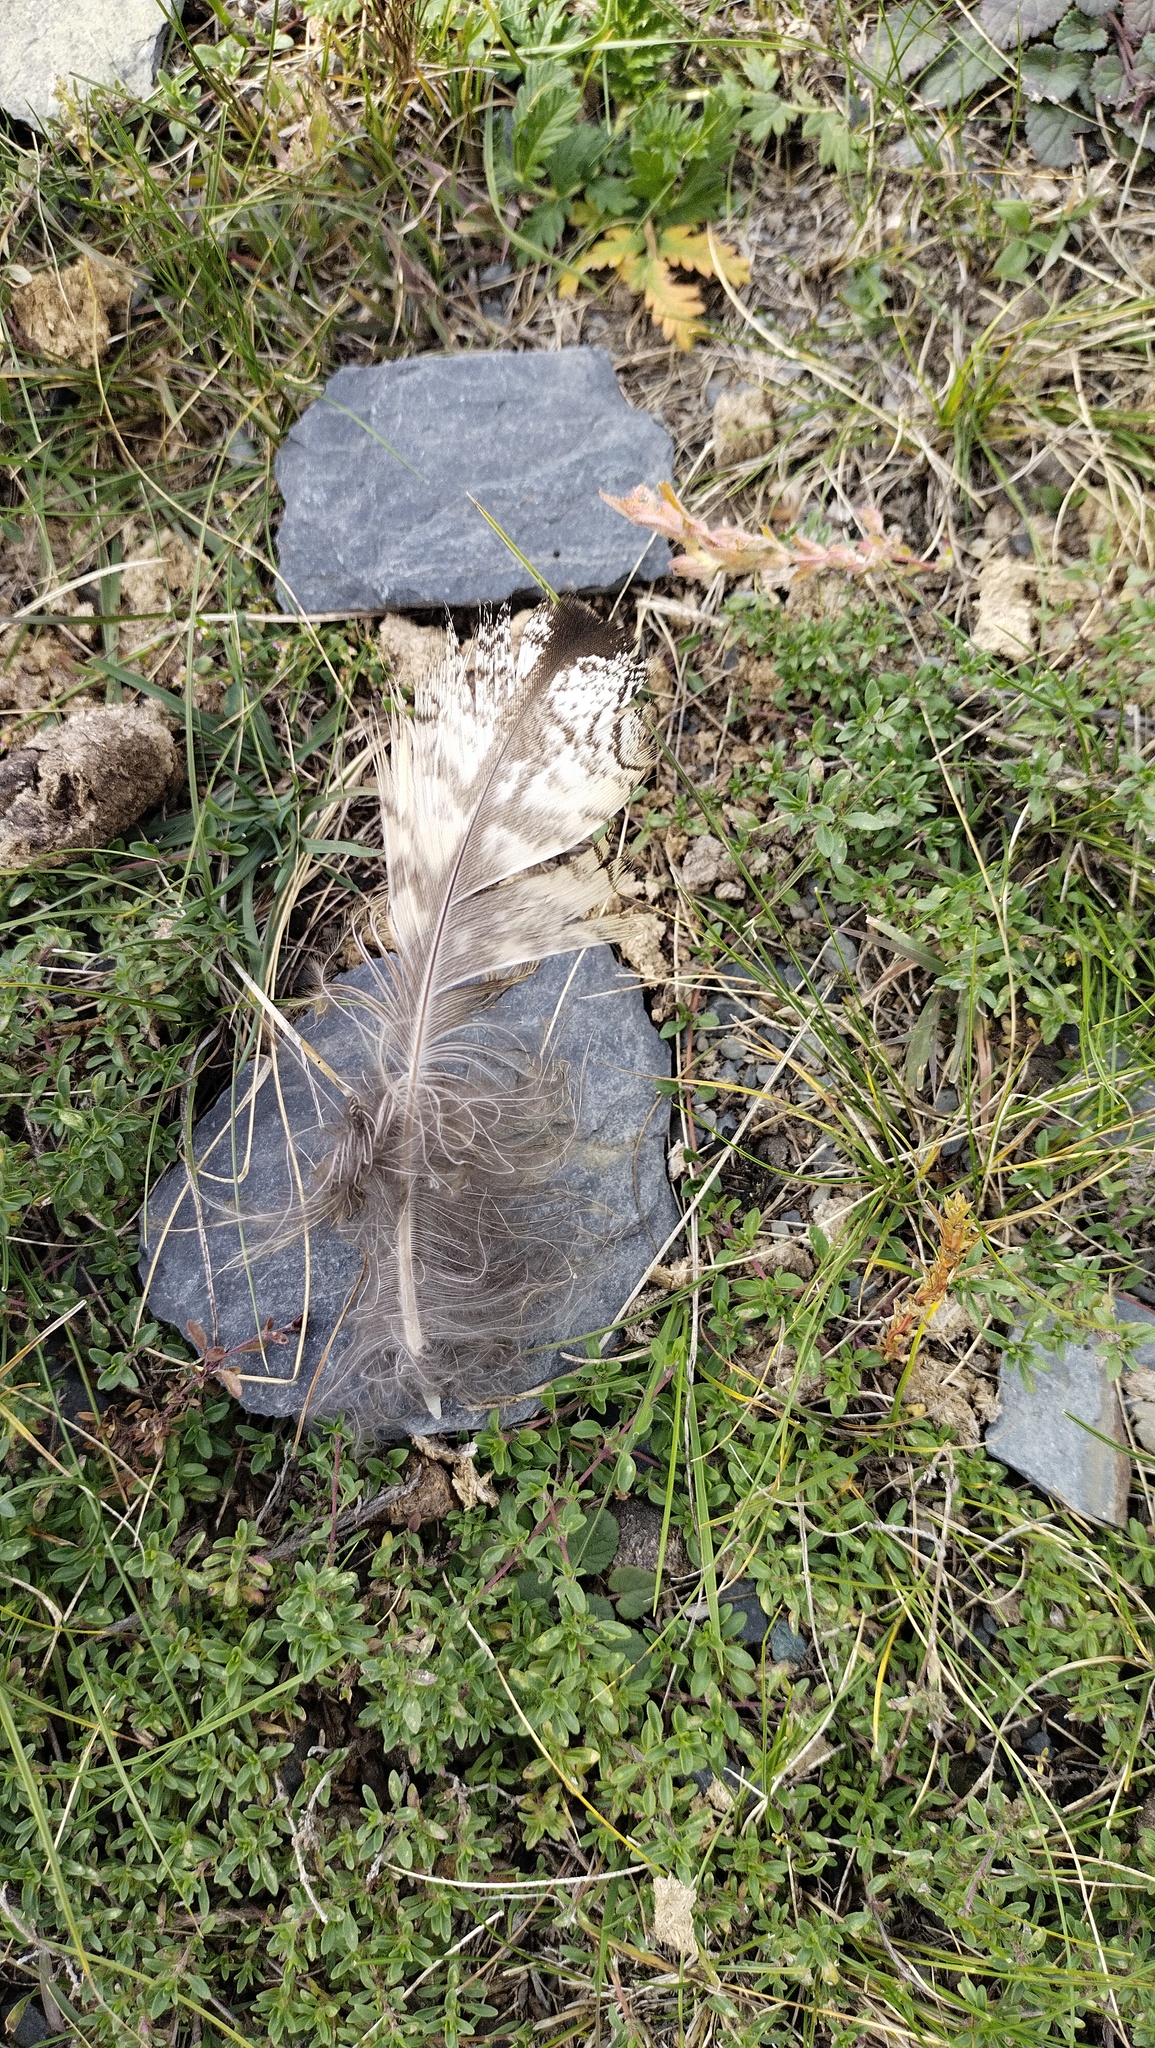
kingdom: Animalia
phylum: Chordata
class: Aves
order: Strigiformes
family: Strigidae
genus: Bubo
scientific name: Bubo bubo
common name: Eurasian eagle-owl
